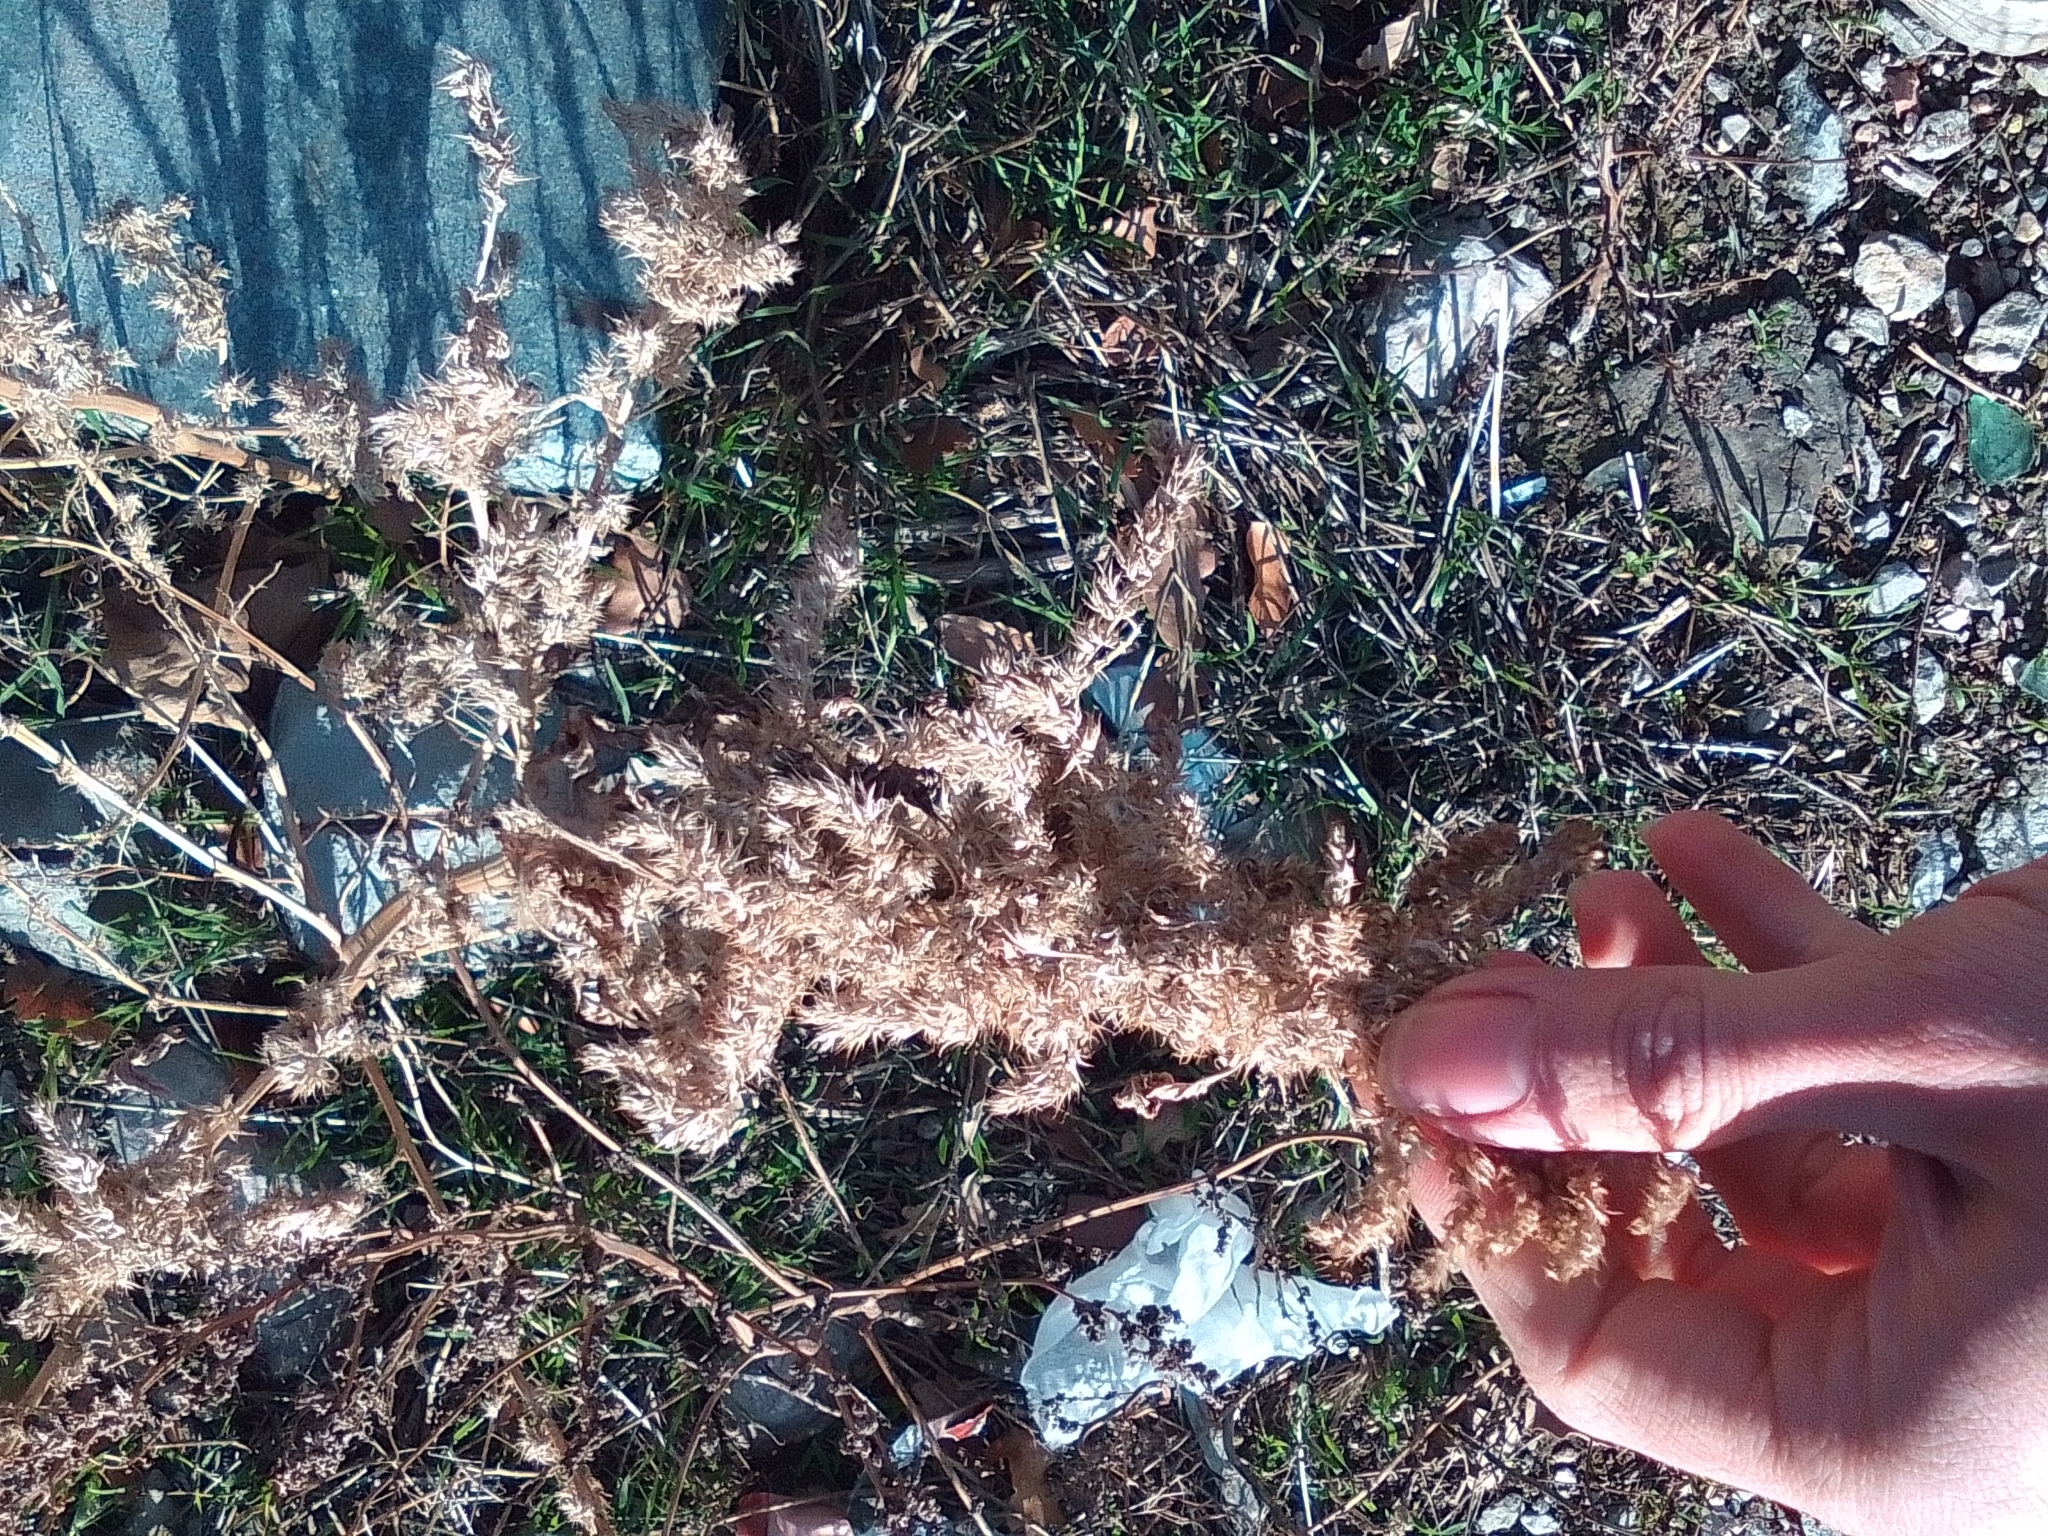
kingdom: Plantae
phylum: Tracheophyta
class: Magnoliopsida
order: Caryophyllales
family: Amaranthaceae
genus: Amaranthus
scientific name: Amaranthus retroflexus
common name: Redroot amaranth
